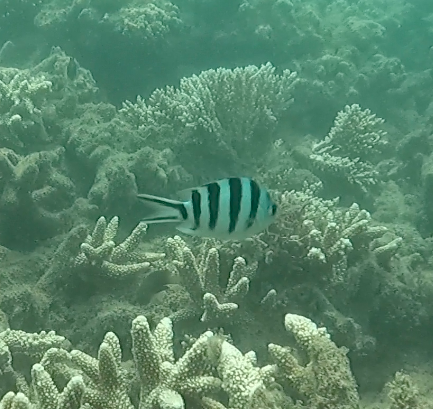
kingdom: Animalia
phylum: Chordata
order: Perciformes
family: Pomacentridae
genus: Abudefduf
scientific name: Abudefduf sexfasciatus
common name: Scissortail sergeant
